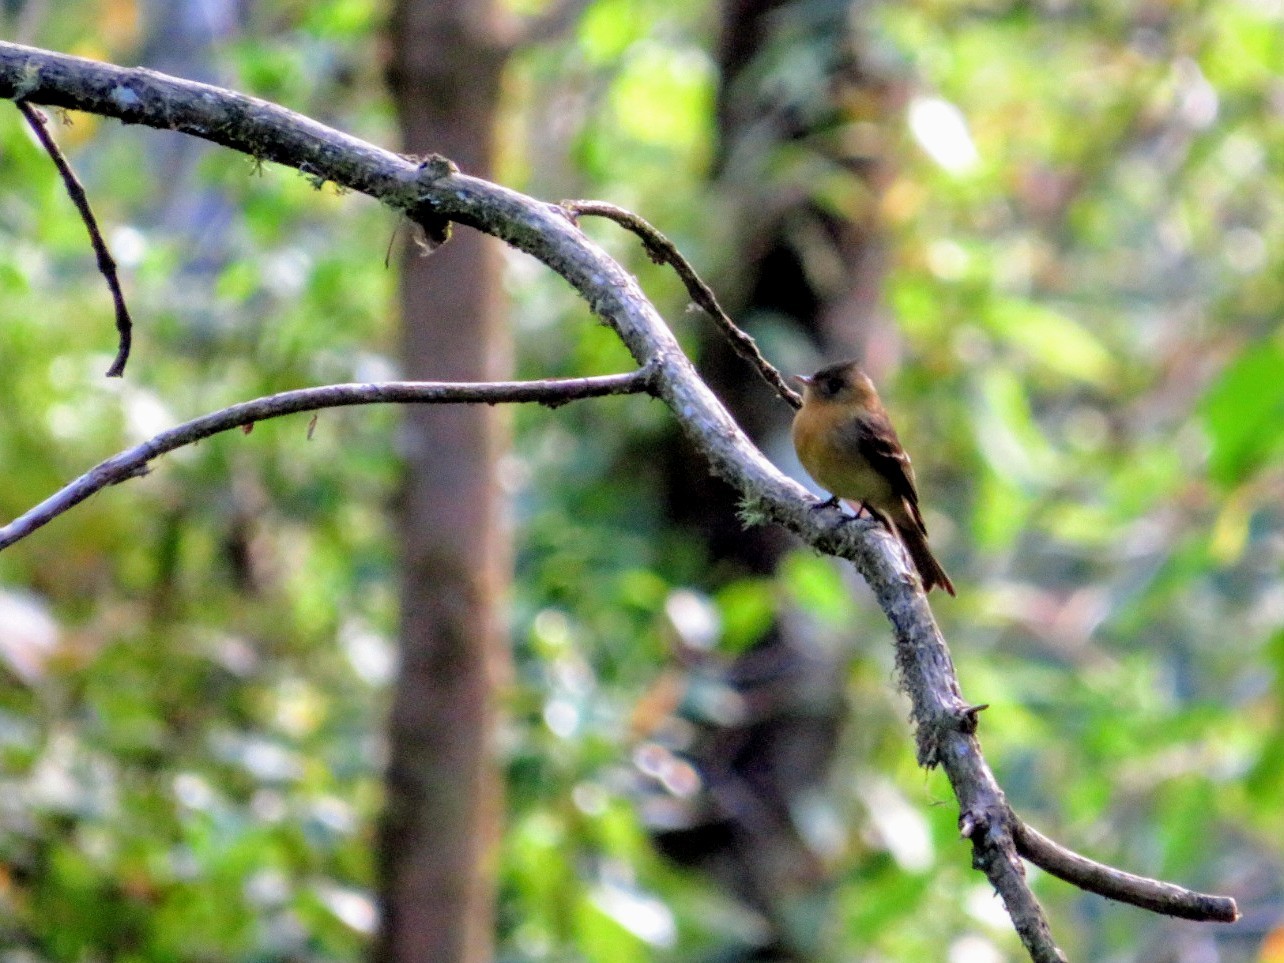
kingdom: Animalia
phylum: Chordata
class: Aves
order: Passeriformes
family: Tyrannidae
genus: Mitrephanes
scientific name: Mitrephanes phaeocercus
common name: Northern tufted flycatcher
